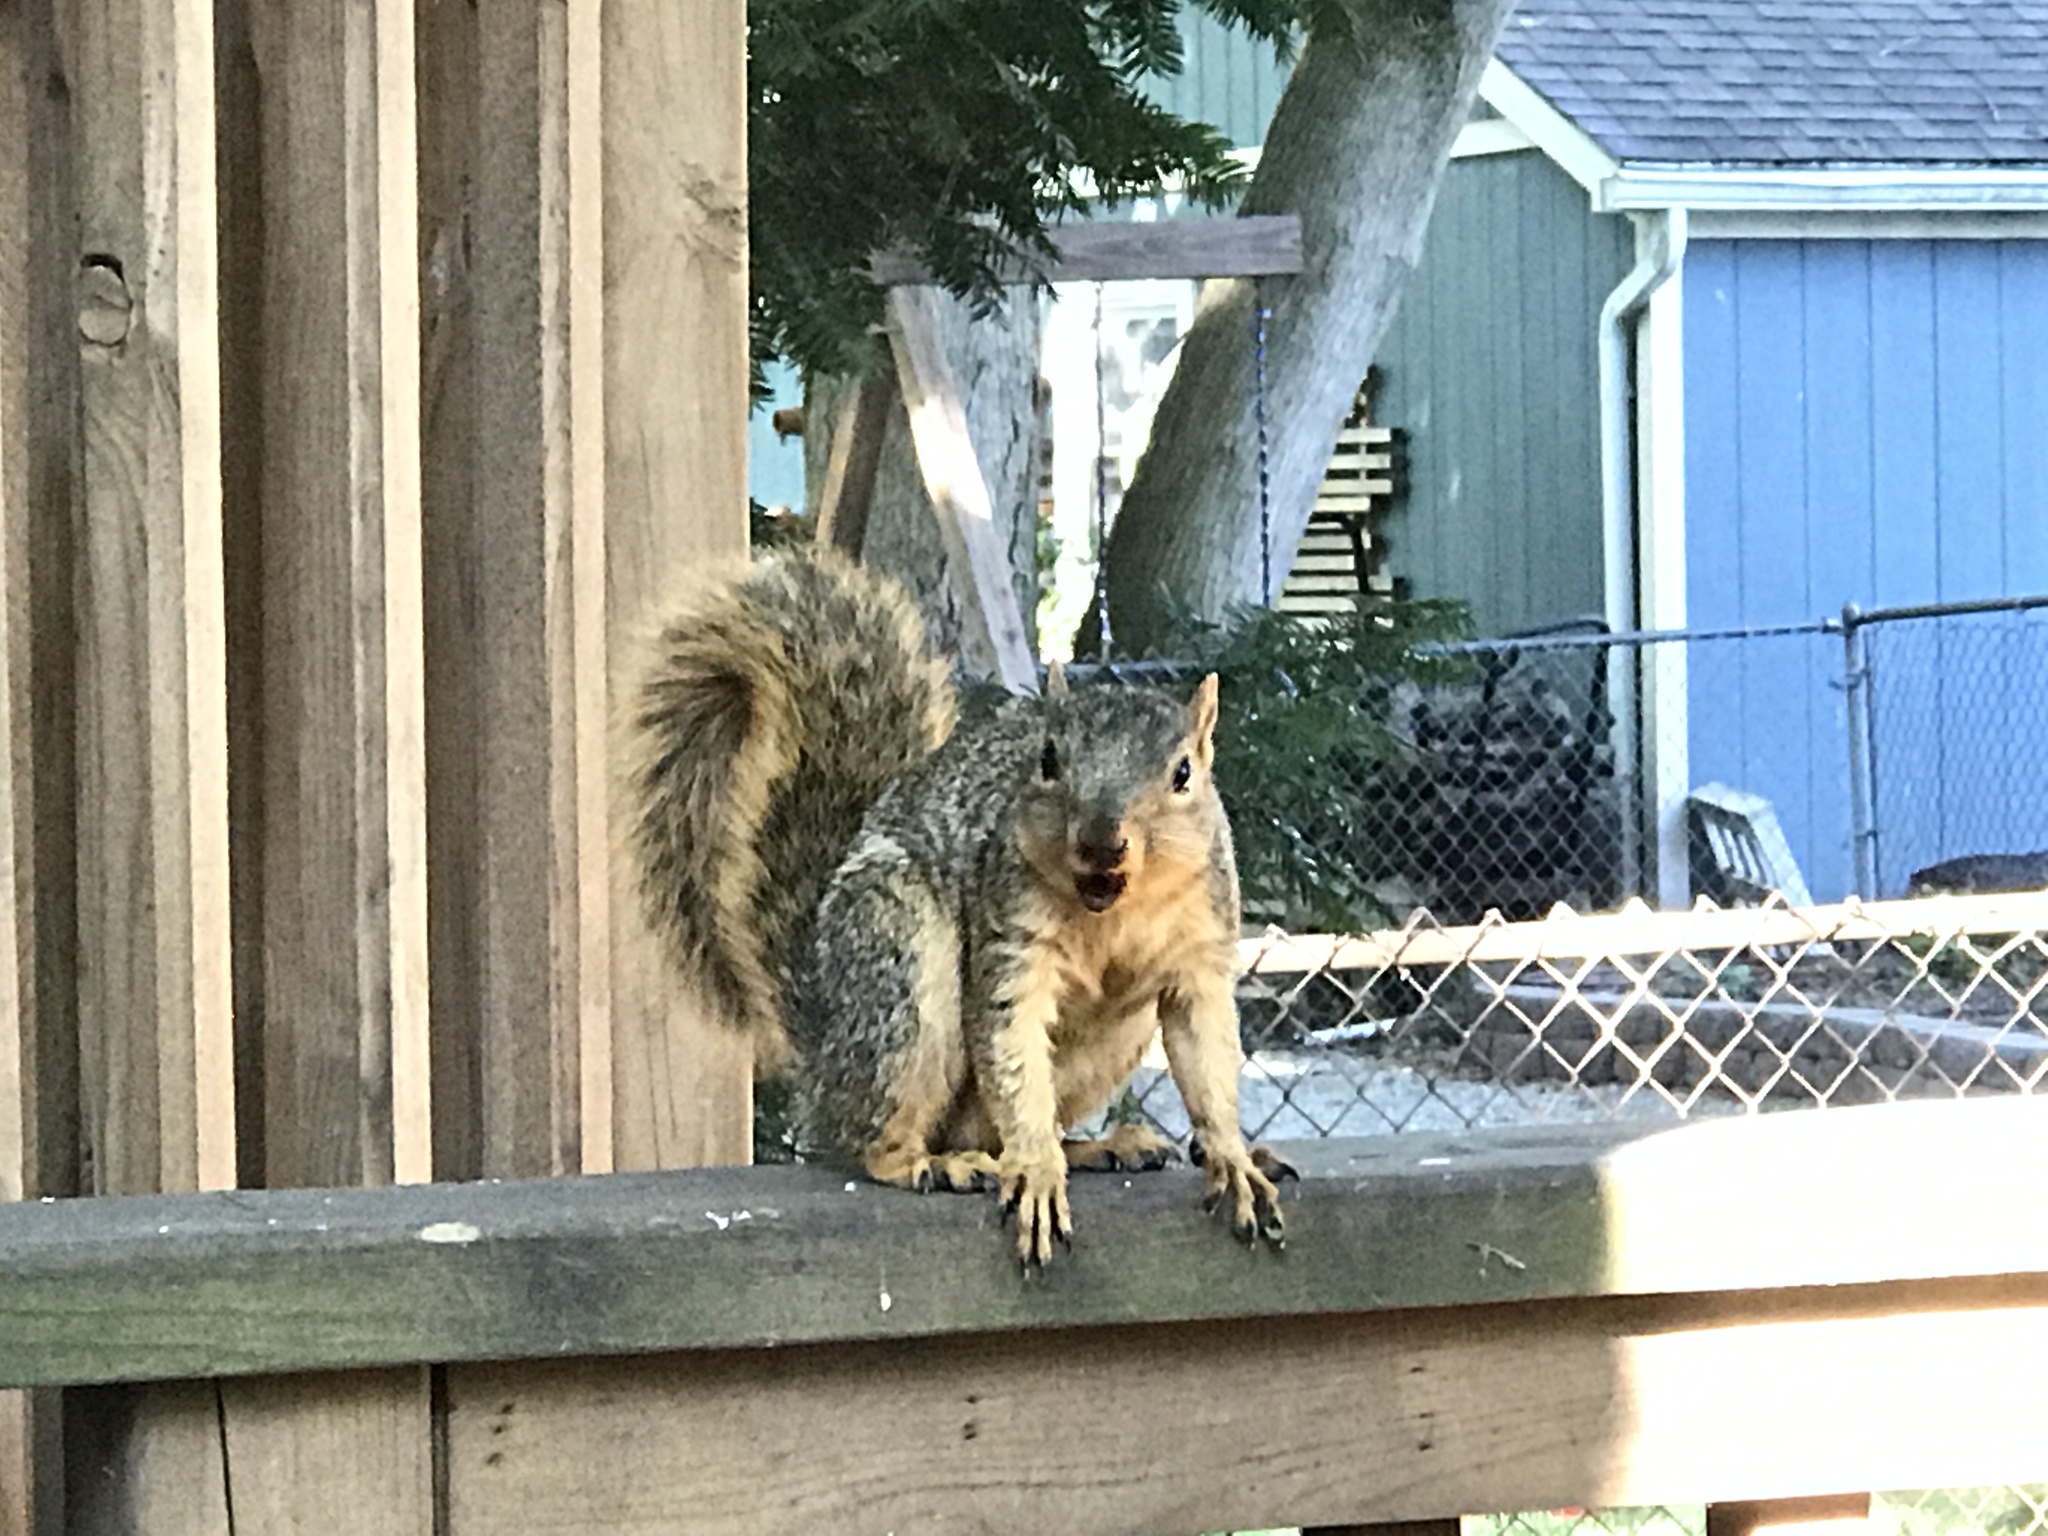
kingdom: Animalia
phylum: Chordata
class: Mammalia
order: Rodentia
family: Sciuridae
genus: Sciurus
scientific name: Sciurus niger
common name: Fox squirrel
